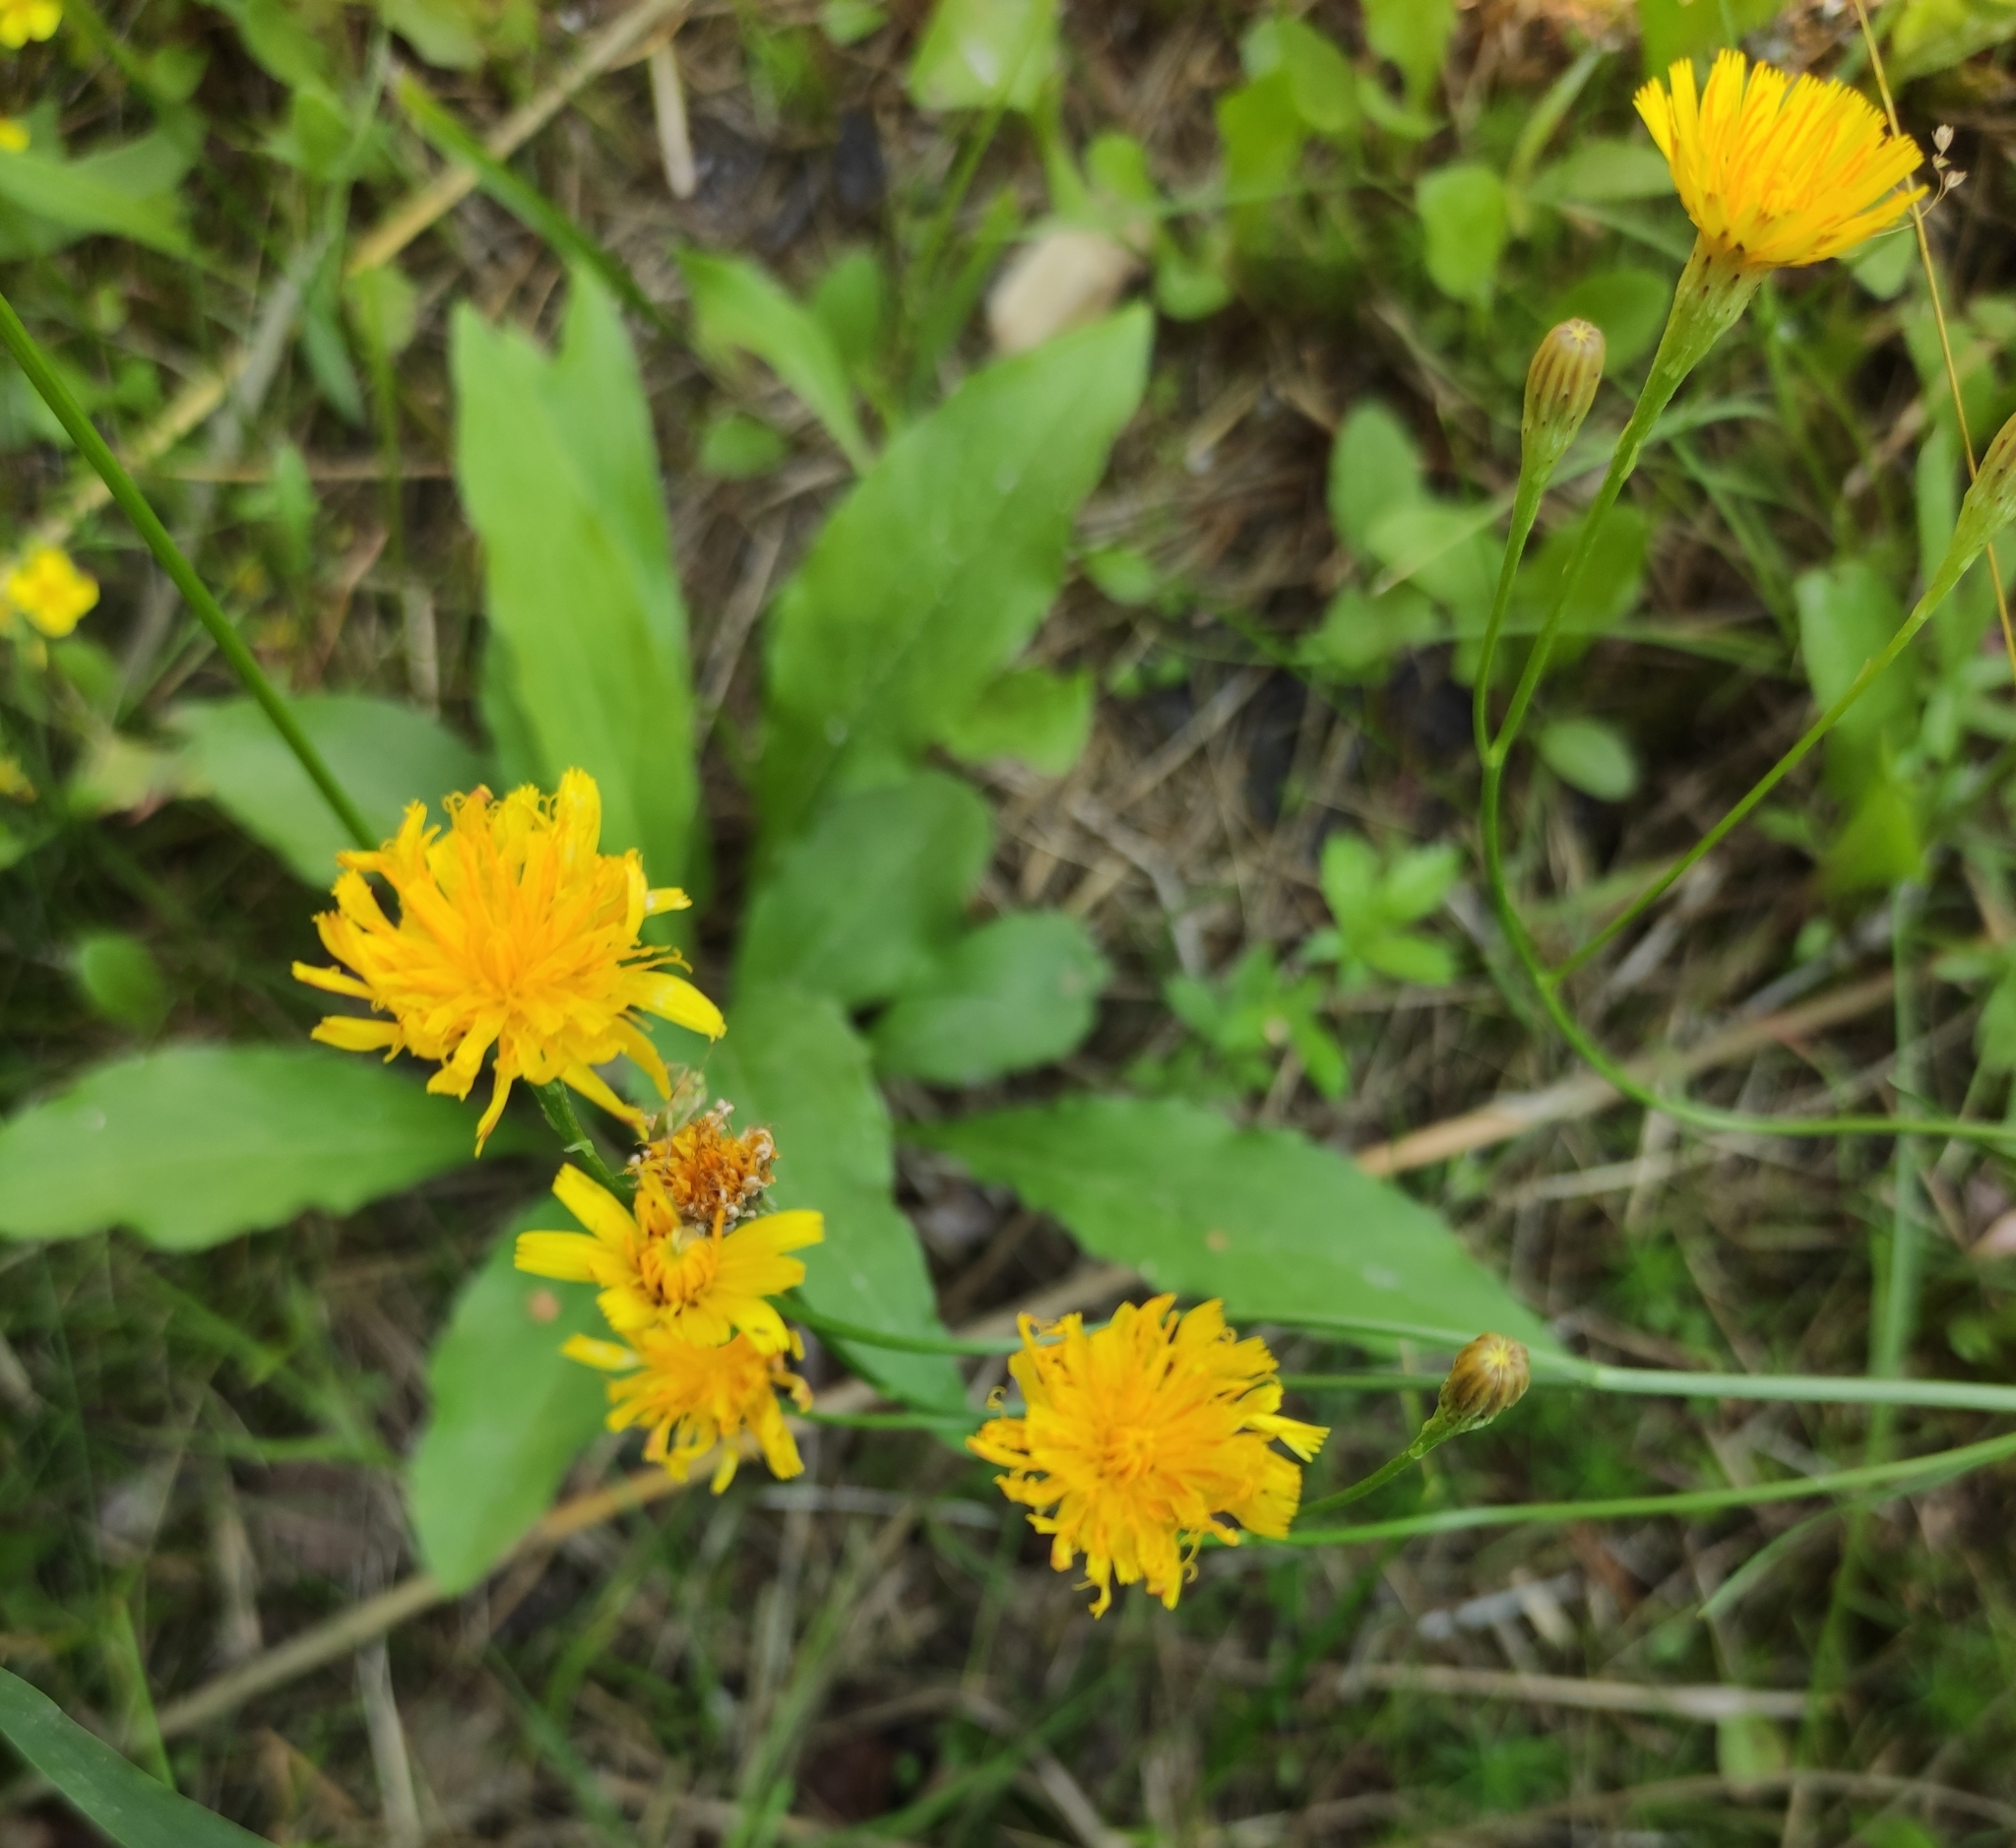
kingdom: Plantae
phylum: Tracheophyta
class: Magnoliopsida
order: Asterales
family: Asteraceae
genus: Scorzoneroides
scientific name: Scorzoneroides autumnalis
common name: Autumn hawkbit
